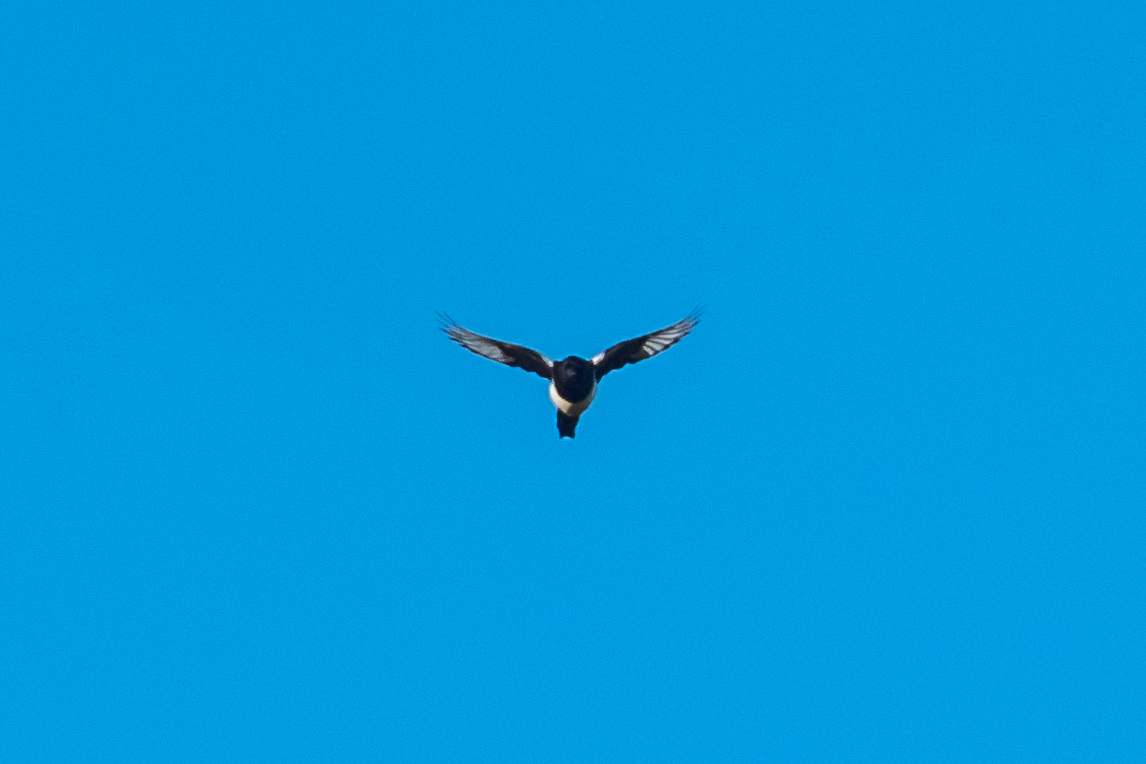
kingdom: Animalia
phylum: Chordata
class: Aves
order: Passeriformes
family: Corvidae
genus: Pica
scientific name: Pica pica
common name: Eurasian magpie
